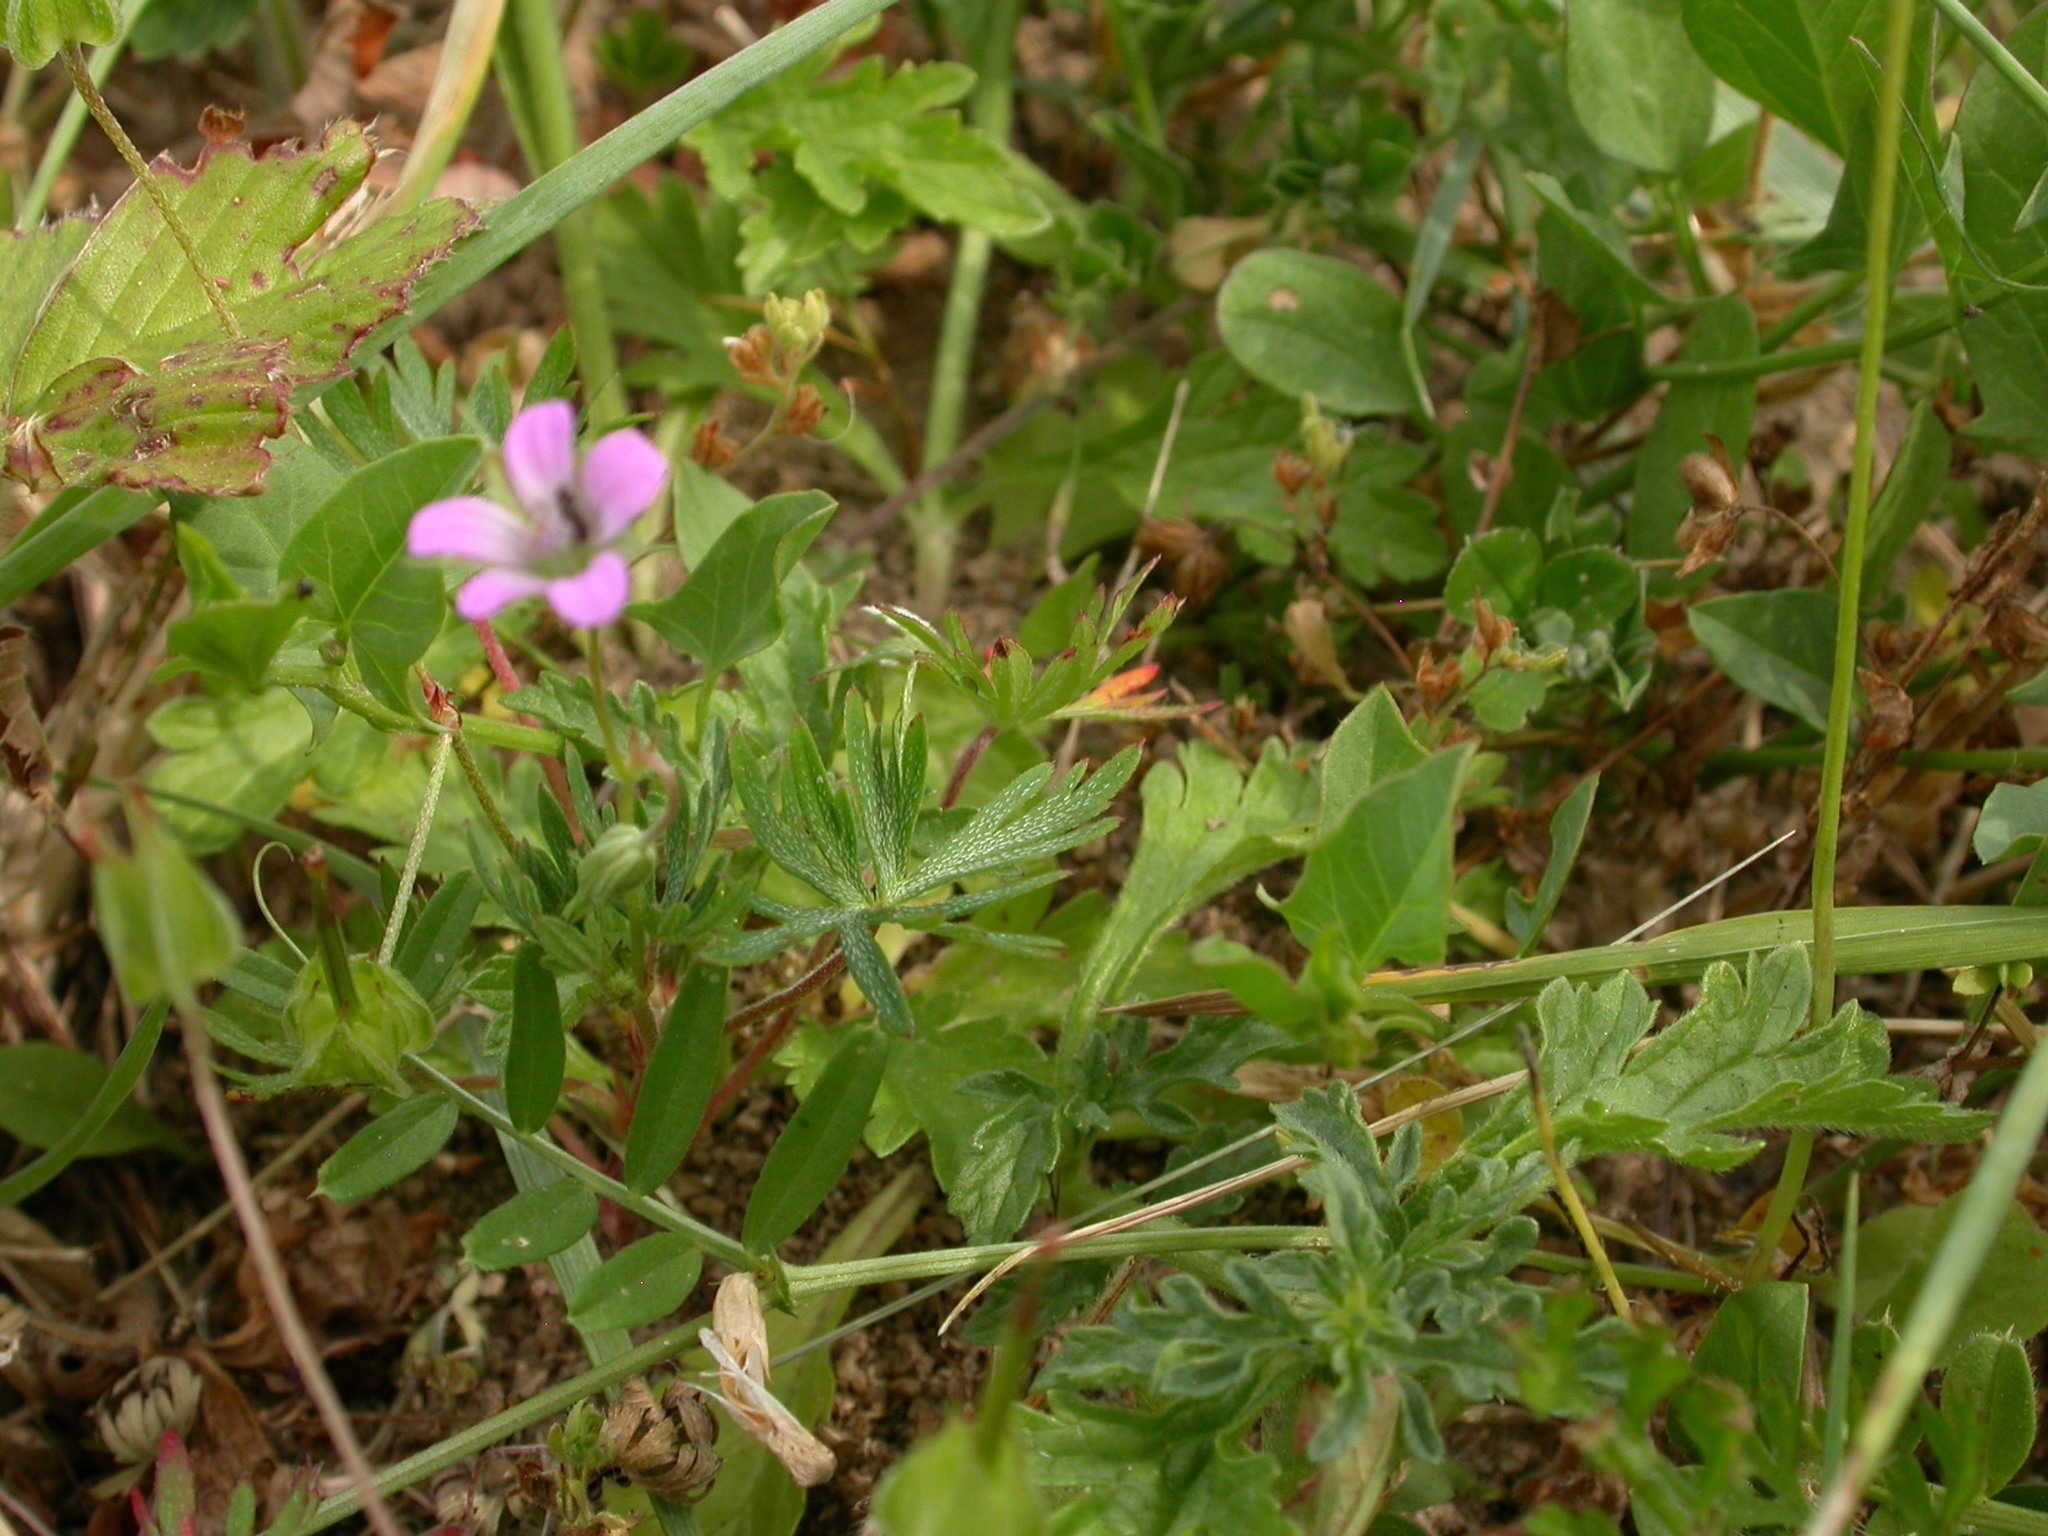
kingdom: Plantae
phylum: Tracheophyta
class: Magnoliopsida
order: Geraniales
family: Geraniaceae
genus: Geranium
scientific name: Geranium columbinum
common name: Long-stalked crane's-bill
